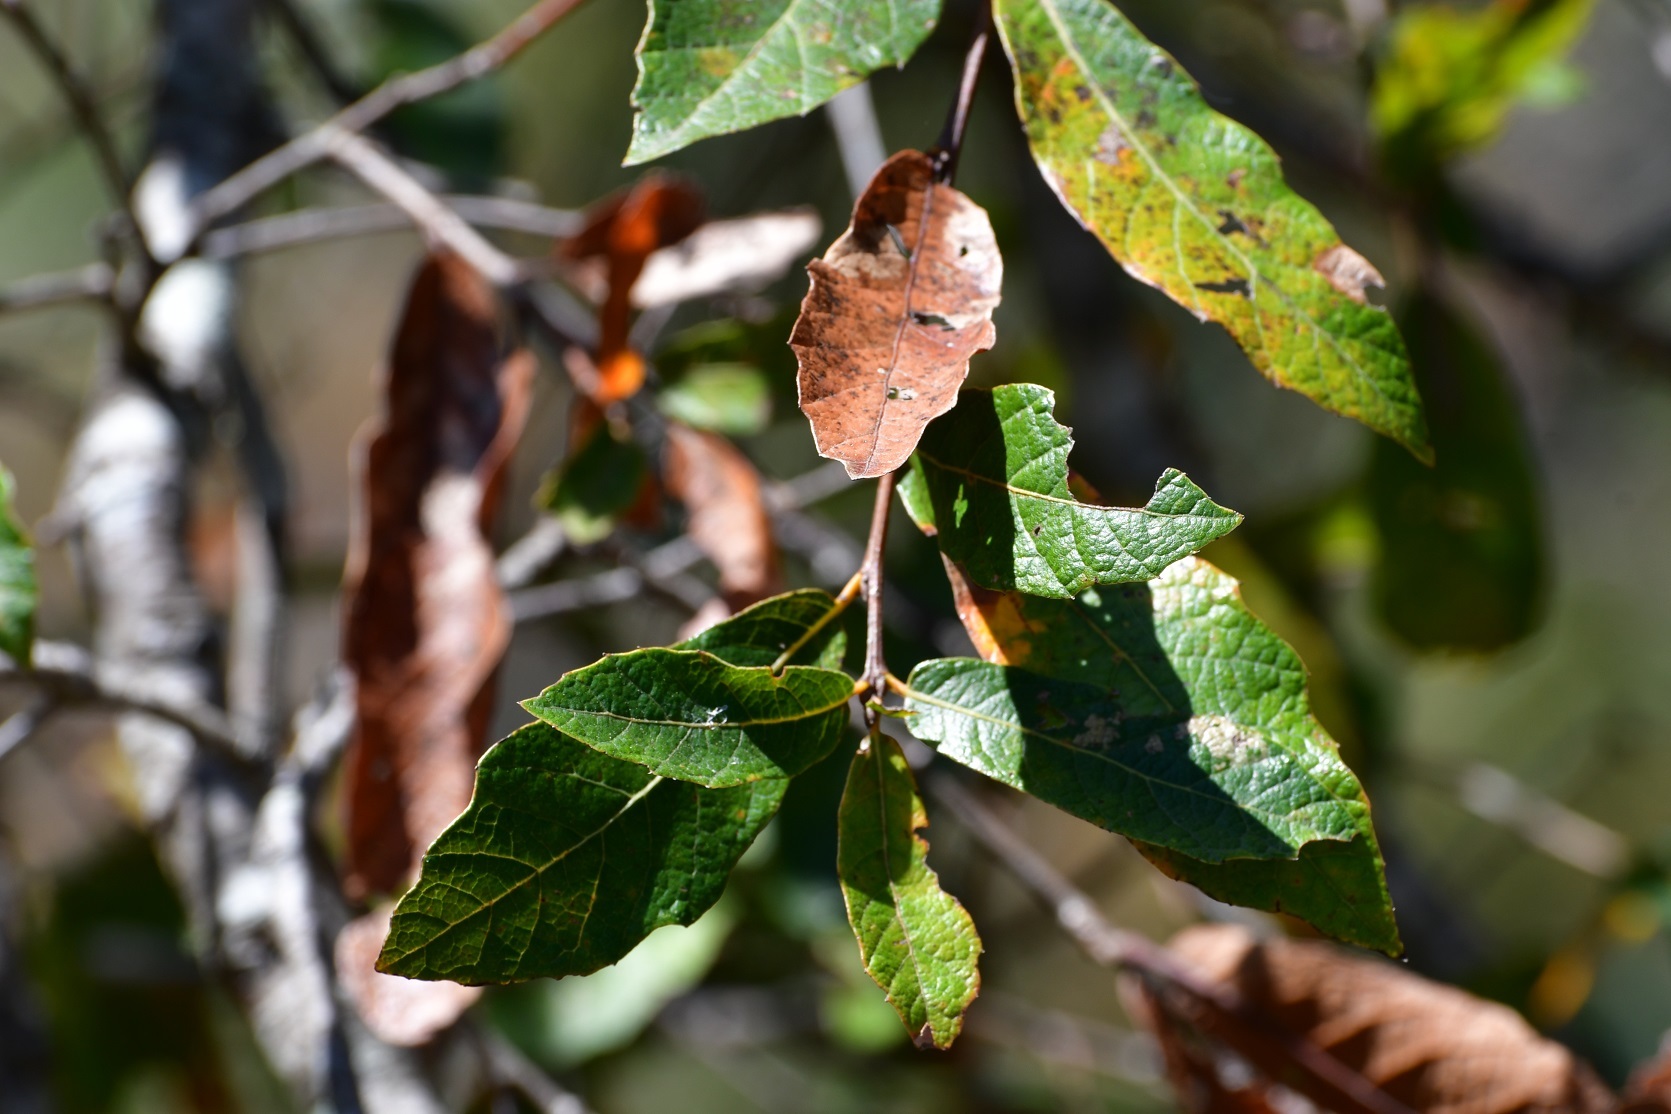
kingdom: Plantae
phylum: Tracheophyta
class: Magnoliopsida
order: Fagales
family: Fagaceae
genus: Quercus
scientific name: Quercus castanea
